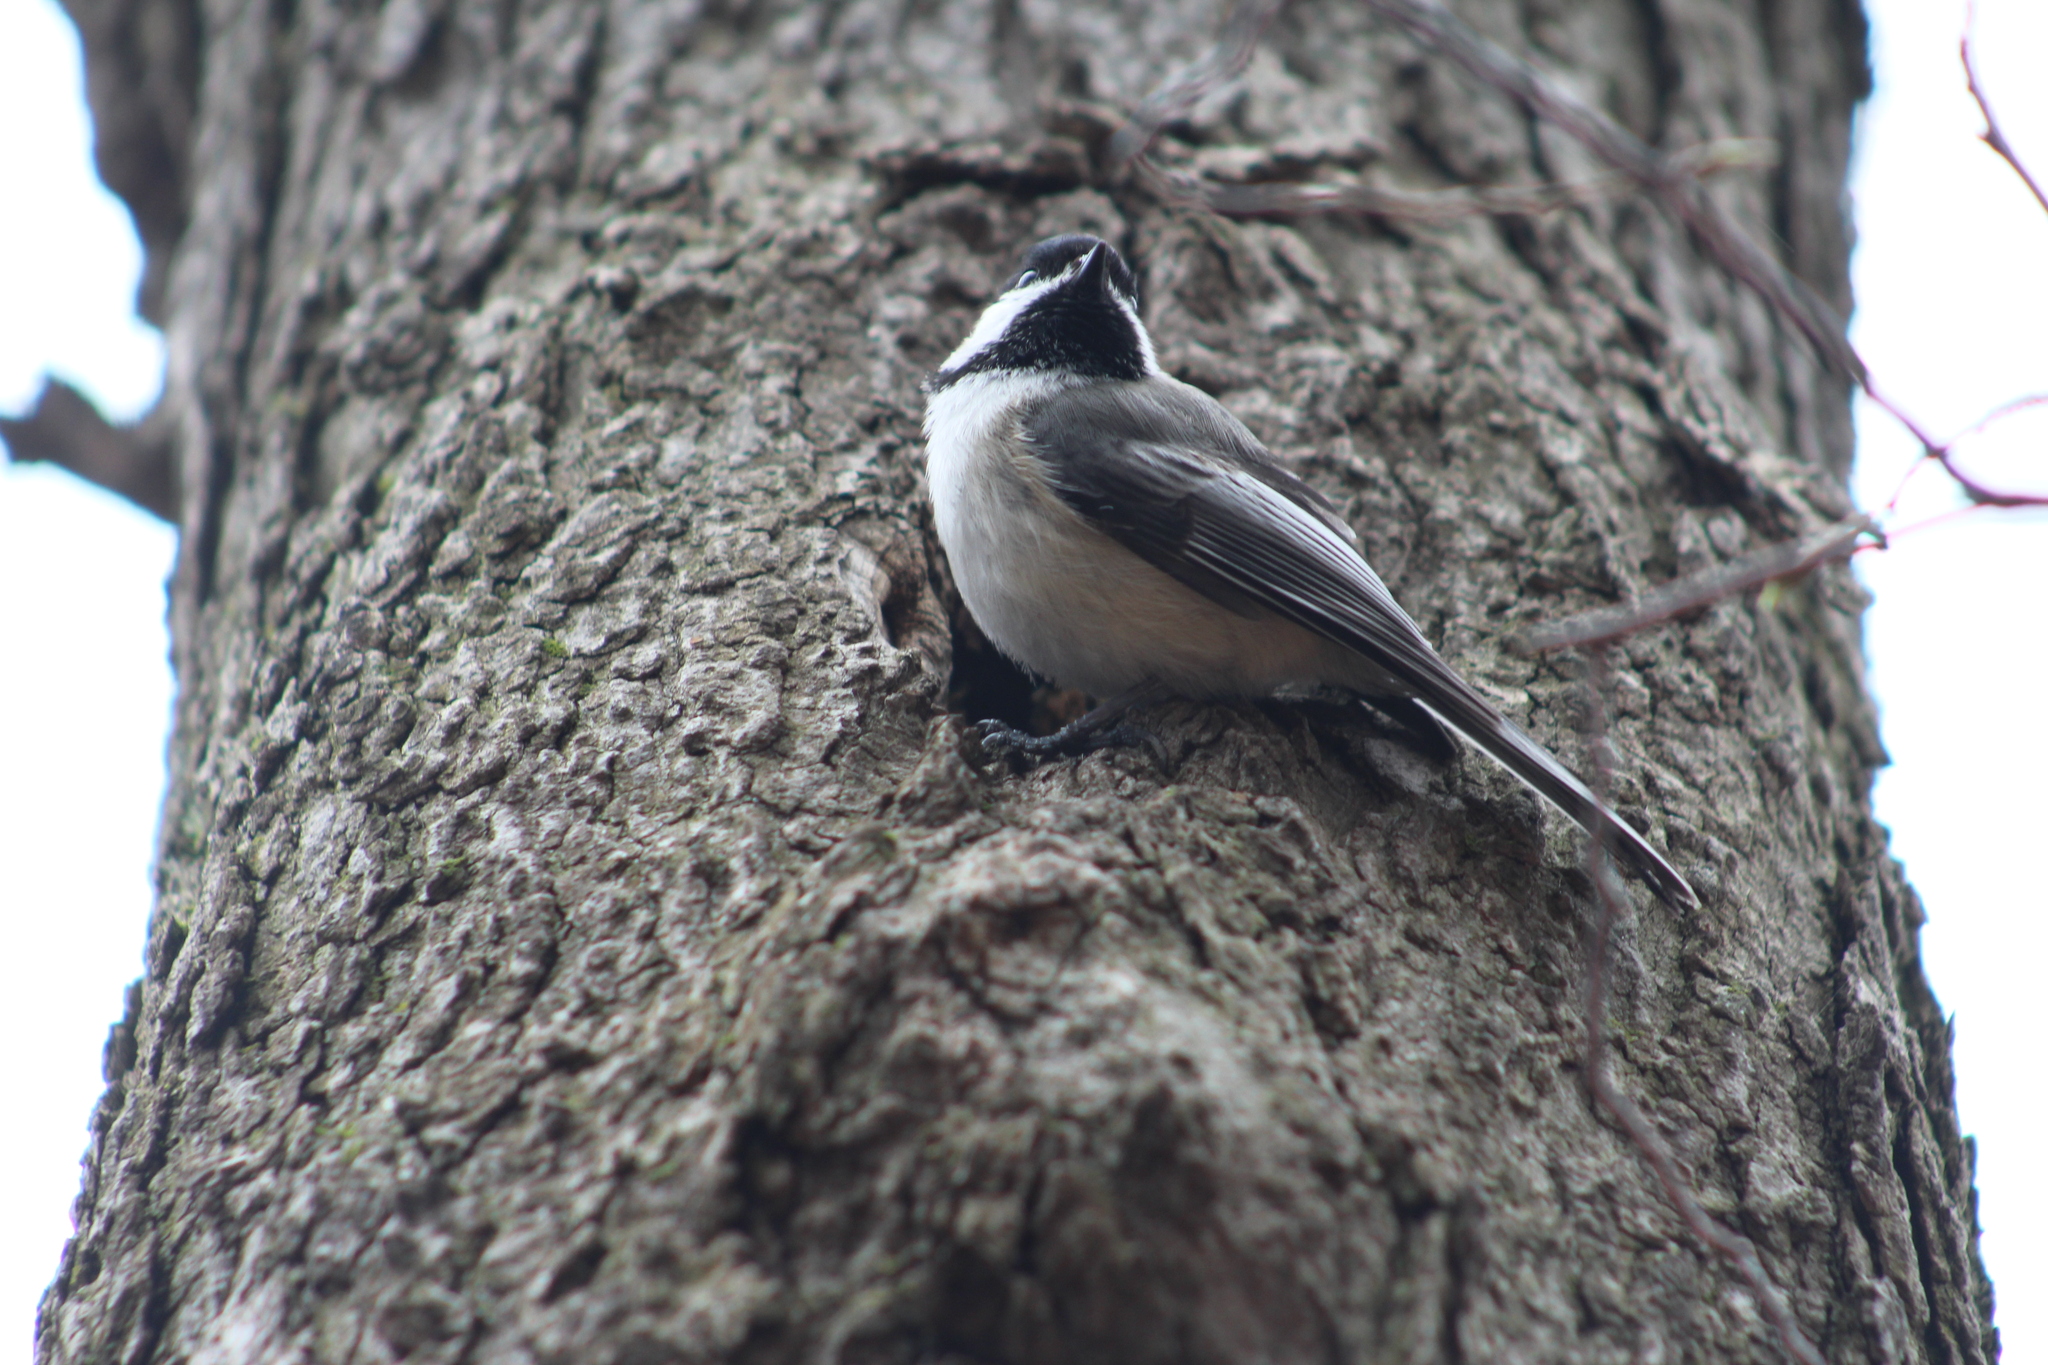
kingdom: Animalia
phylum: Chordata
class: Aves
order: Passeriformes
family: Paridae
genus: Poecile
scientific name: Poecile atricapillus
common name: Black-capped chickadee
